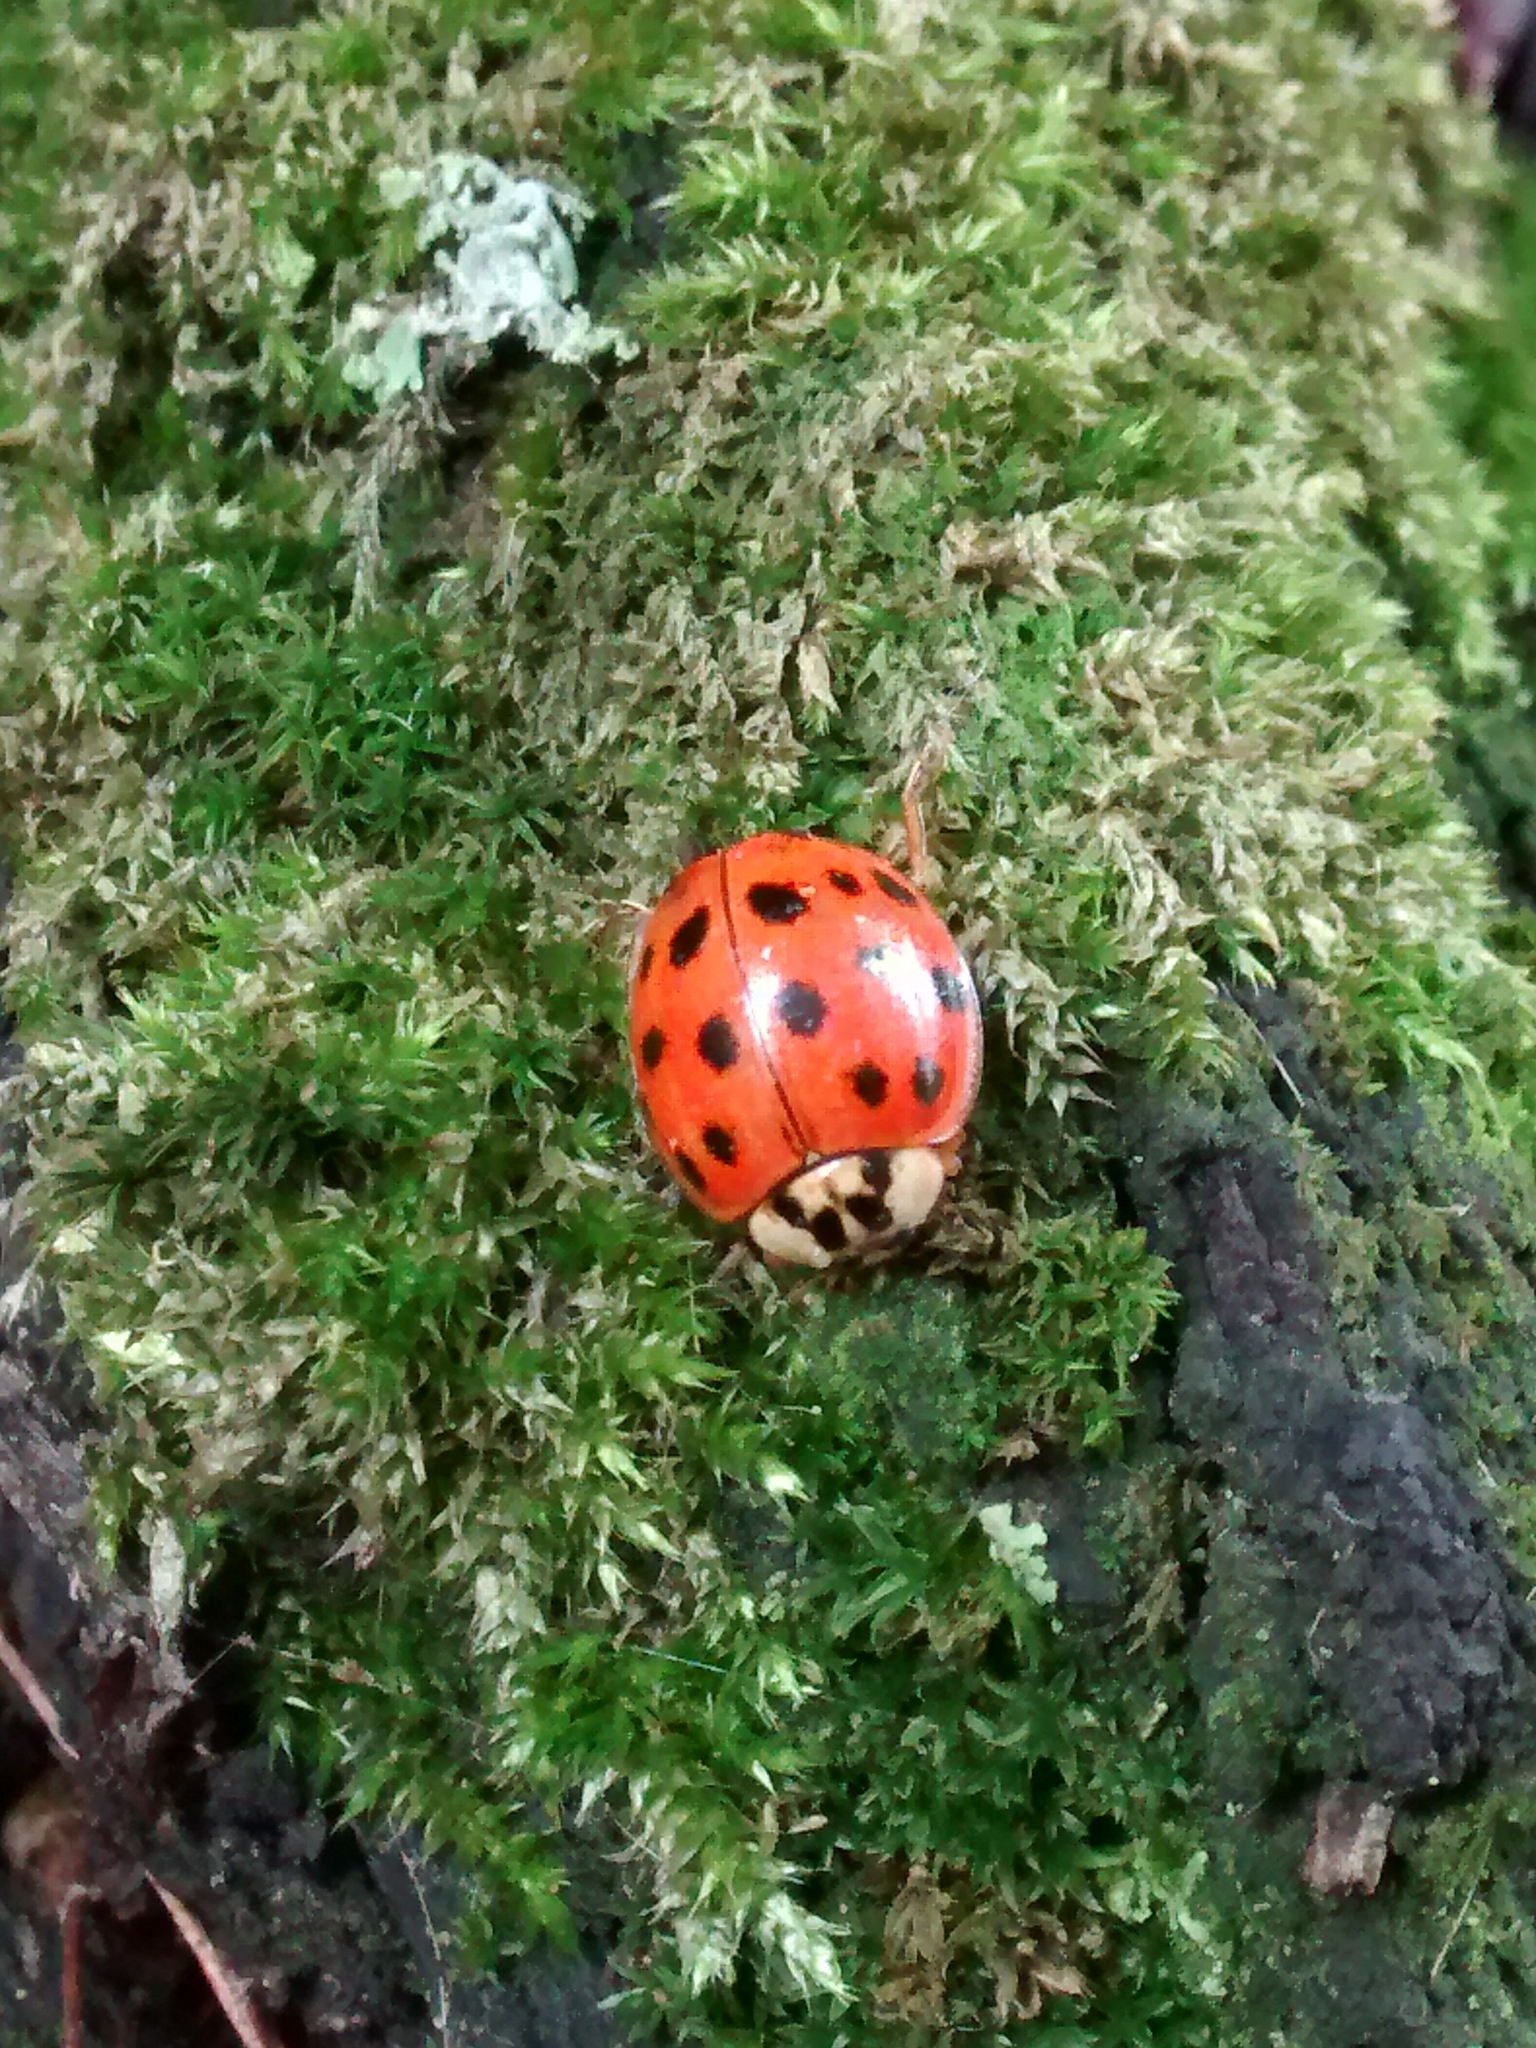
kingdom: Animalia
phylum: Arthropoda
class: Insecta
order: Coleoptera
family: Coccinellidae
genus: Harmonia
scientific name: Harmonia axyridis
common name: Harlequin ladybird
